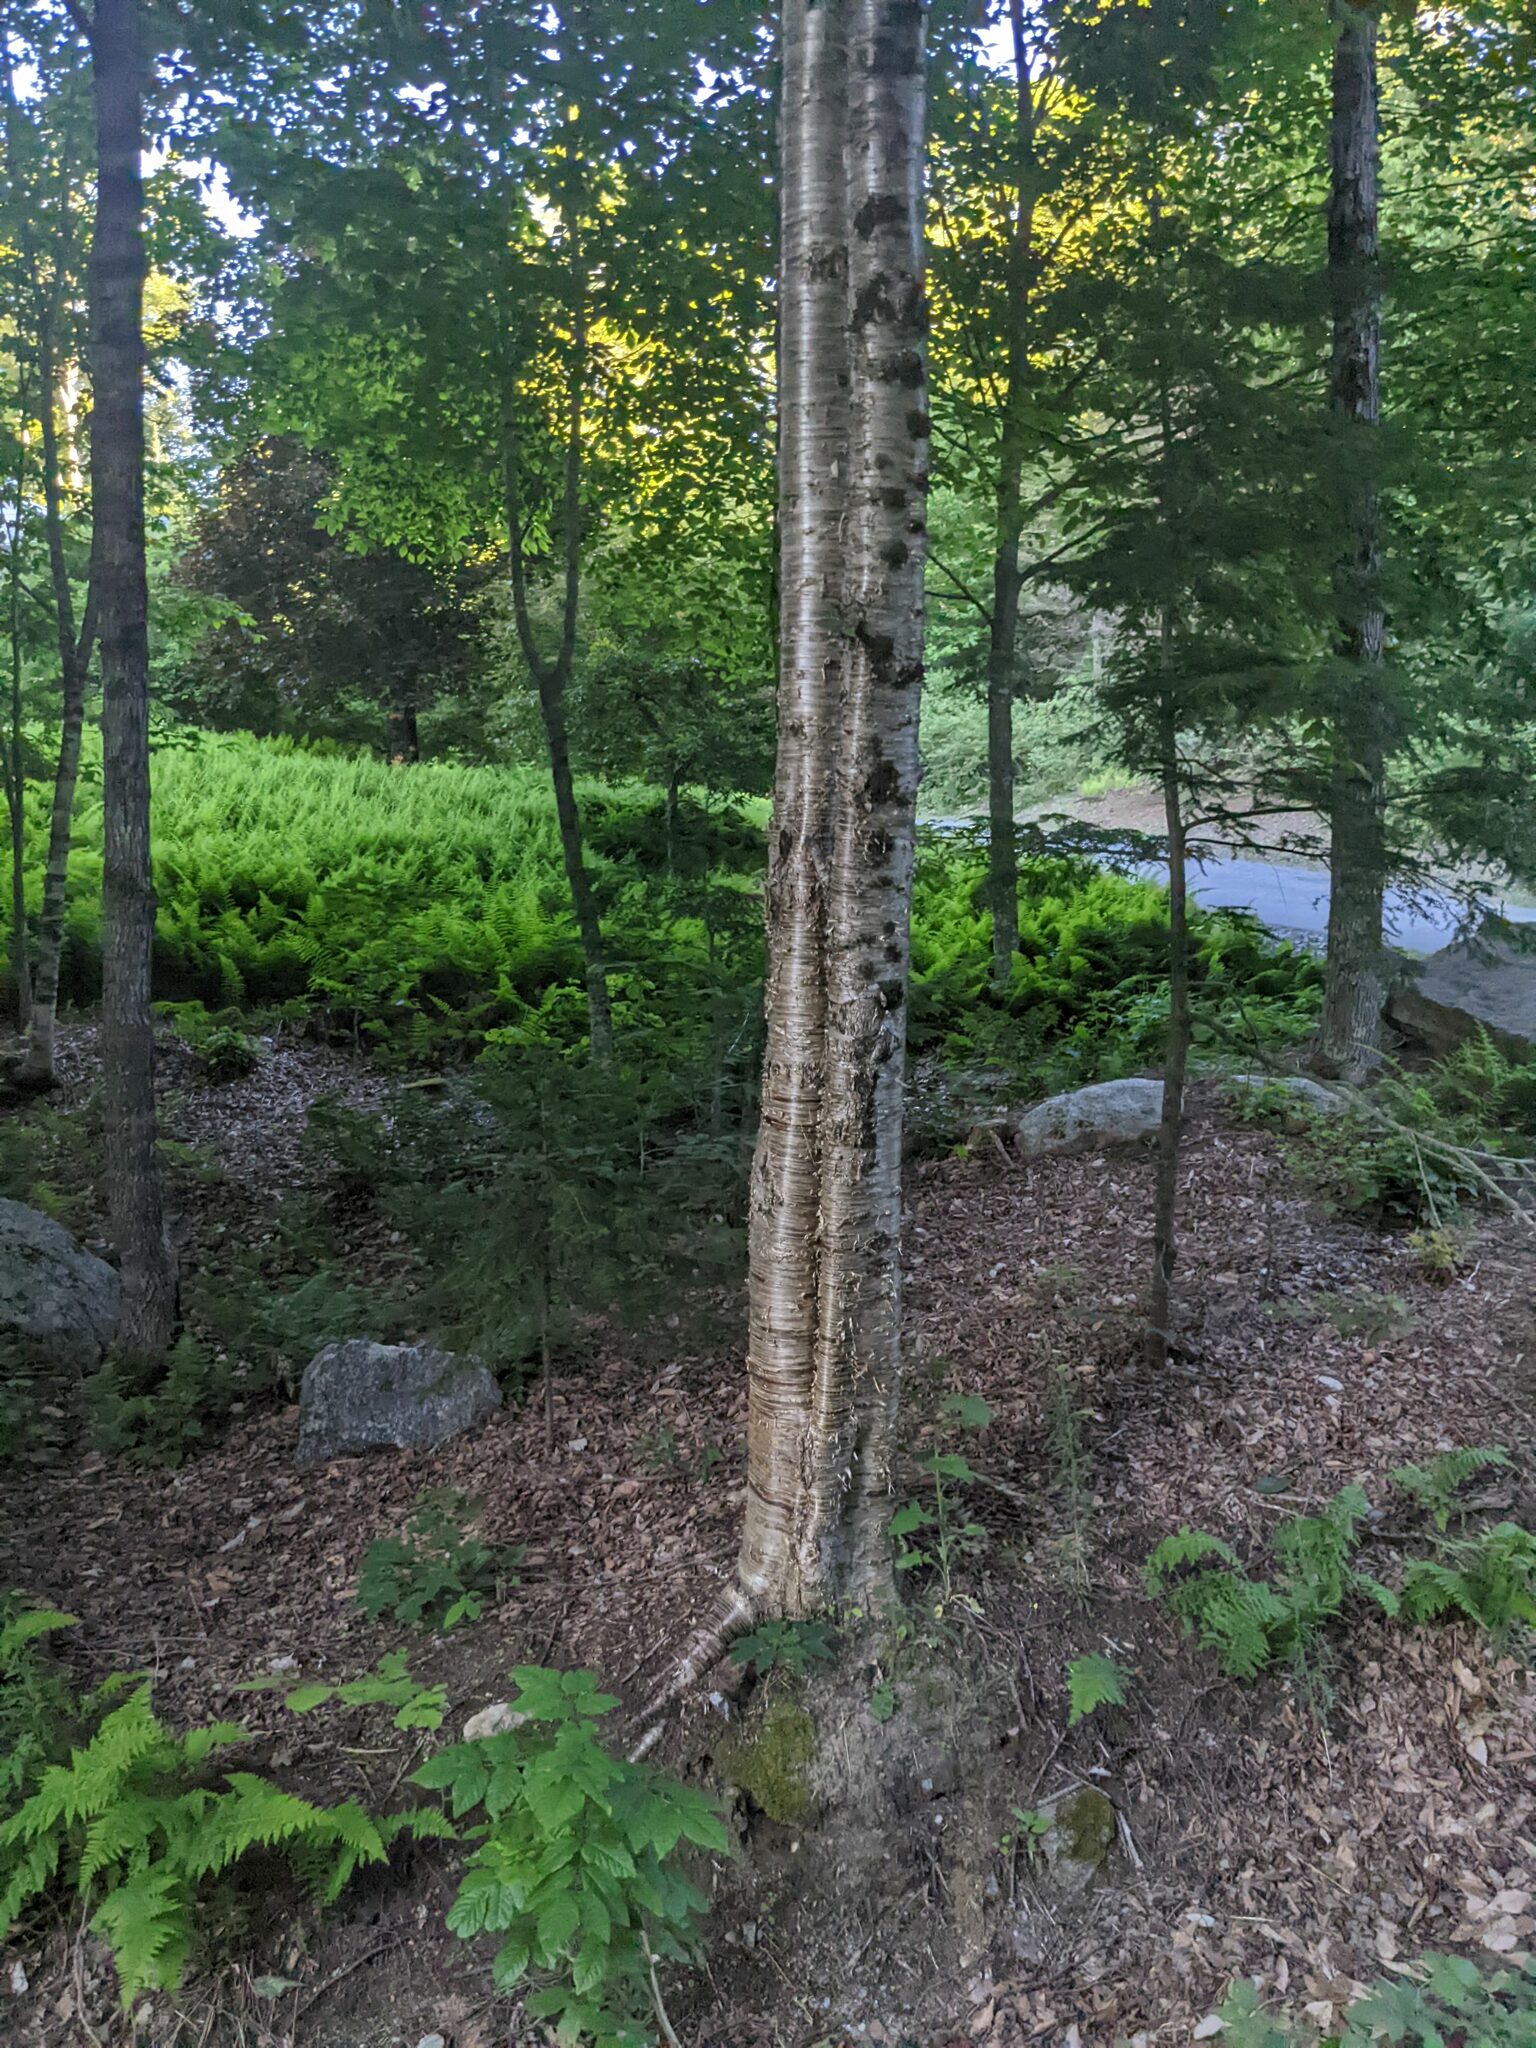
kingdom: Plantae
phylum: Tracheophyta
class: Magnoliopsida
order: Fagales
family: Betulaceae
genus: Betula
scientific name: Betula alleghaniensis
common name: Yellow birch
